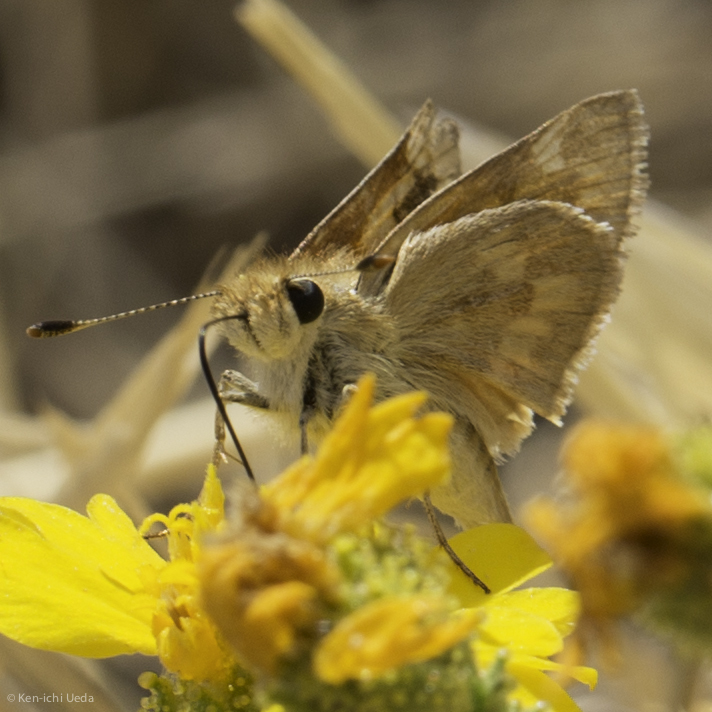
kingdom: Animalia
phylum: Arthropoda
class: Insecta
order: Lepidoptera
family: Hesperiidae
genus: Ochlodes
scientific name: Ochlodes sylvanoides
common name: Woodland skipper
